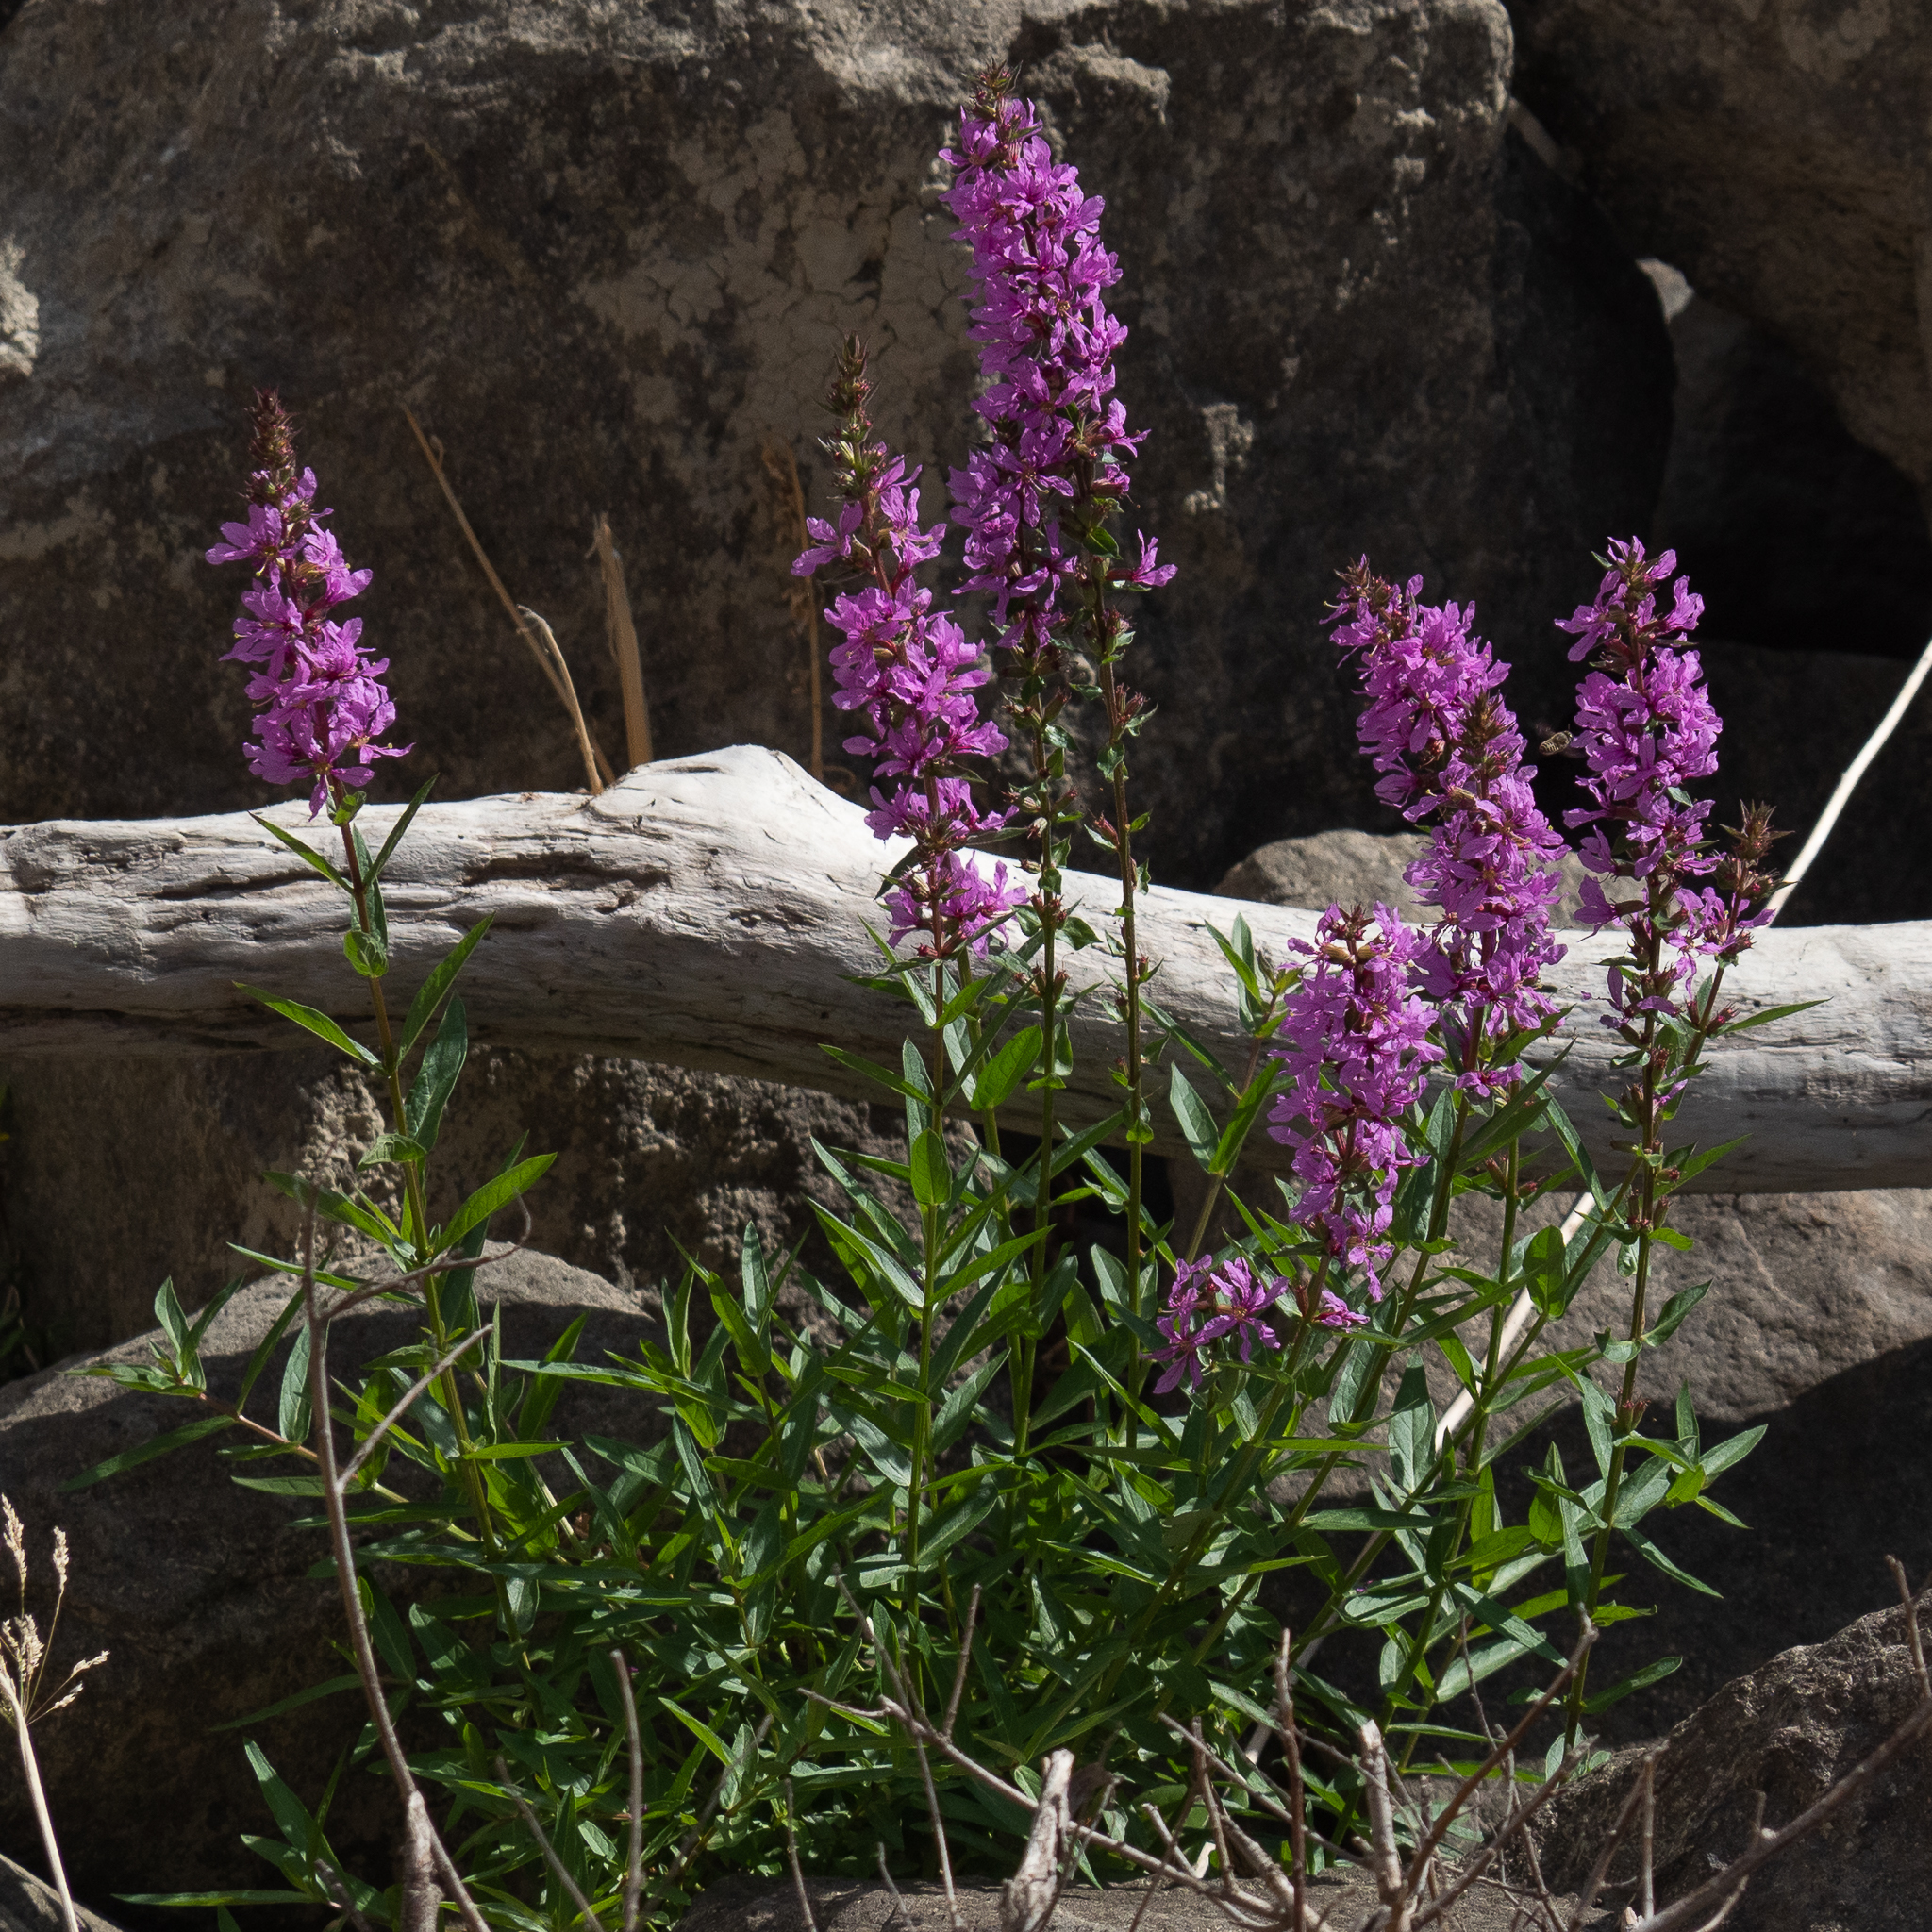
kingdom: Plantae
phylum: Tracheophyta
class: Magnoliopsida
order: Myrtales
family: Lythraceae
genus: Lythrum
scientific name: Lythrum salicaria
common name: Purple loosestrife
